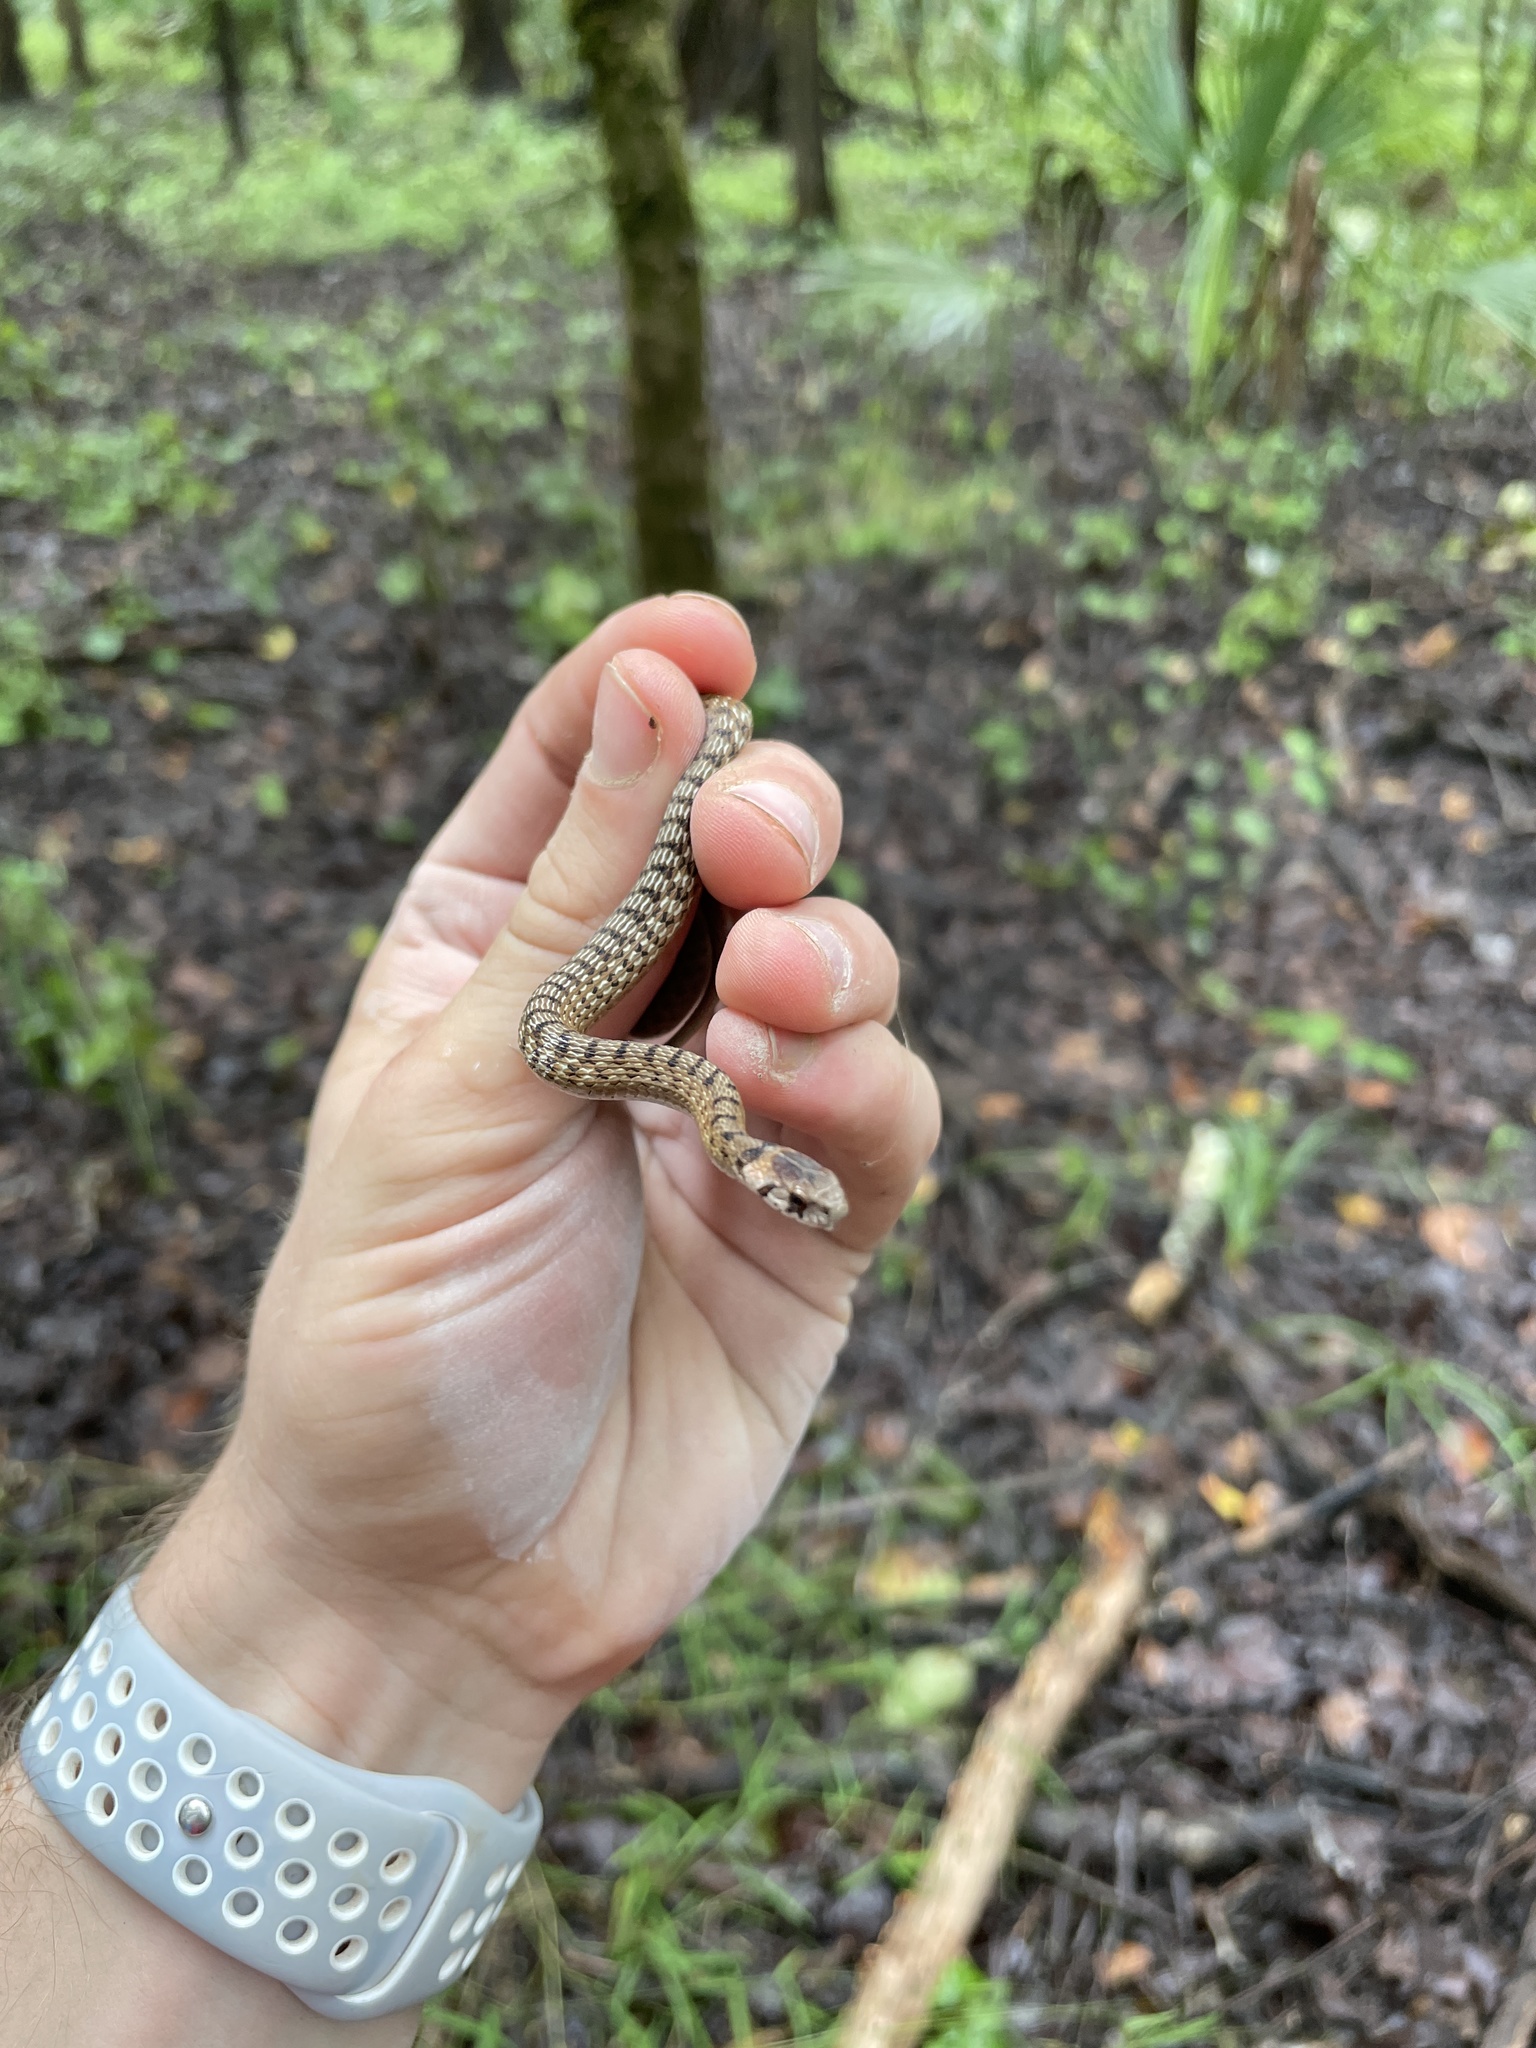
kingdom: Animalia
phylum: Chordata
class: Squamata
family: Colubridae
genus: Storeria
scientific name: Storeria dekayi
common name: (dekay’s) brown snake
